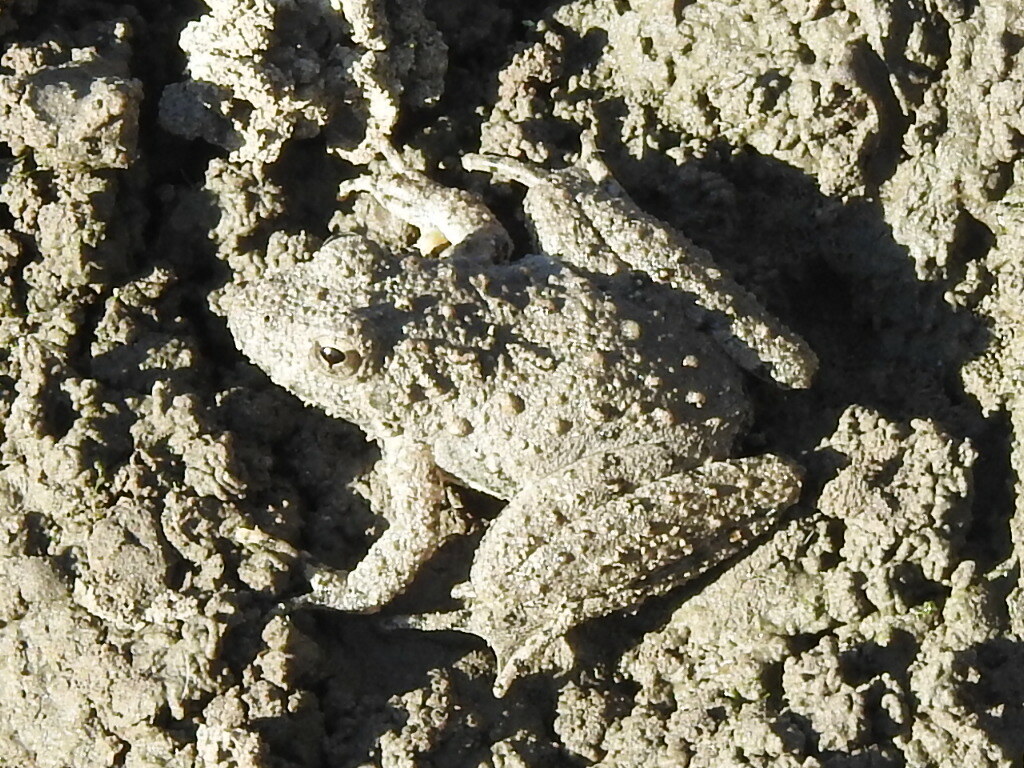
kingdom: Animalia
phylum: Chordata
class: Amphibia
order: Anura
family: Hylidae
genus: Acris
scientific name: Acris blanchardi
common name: Blanchard's cricket frog
